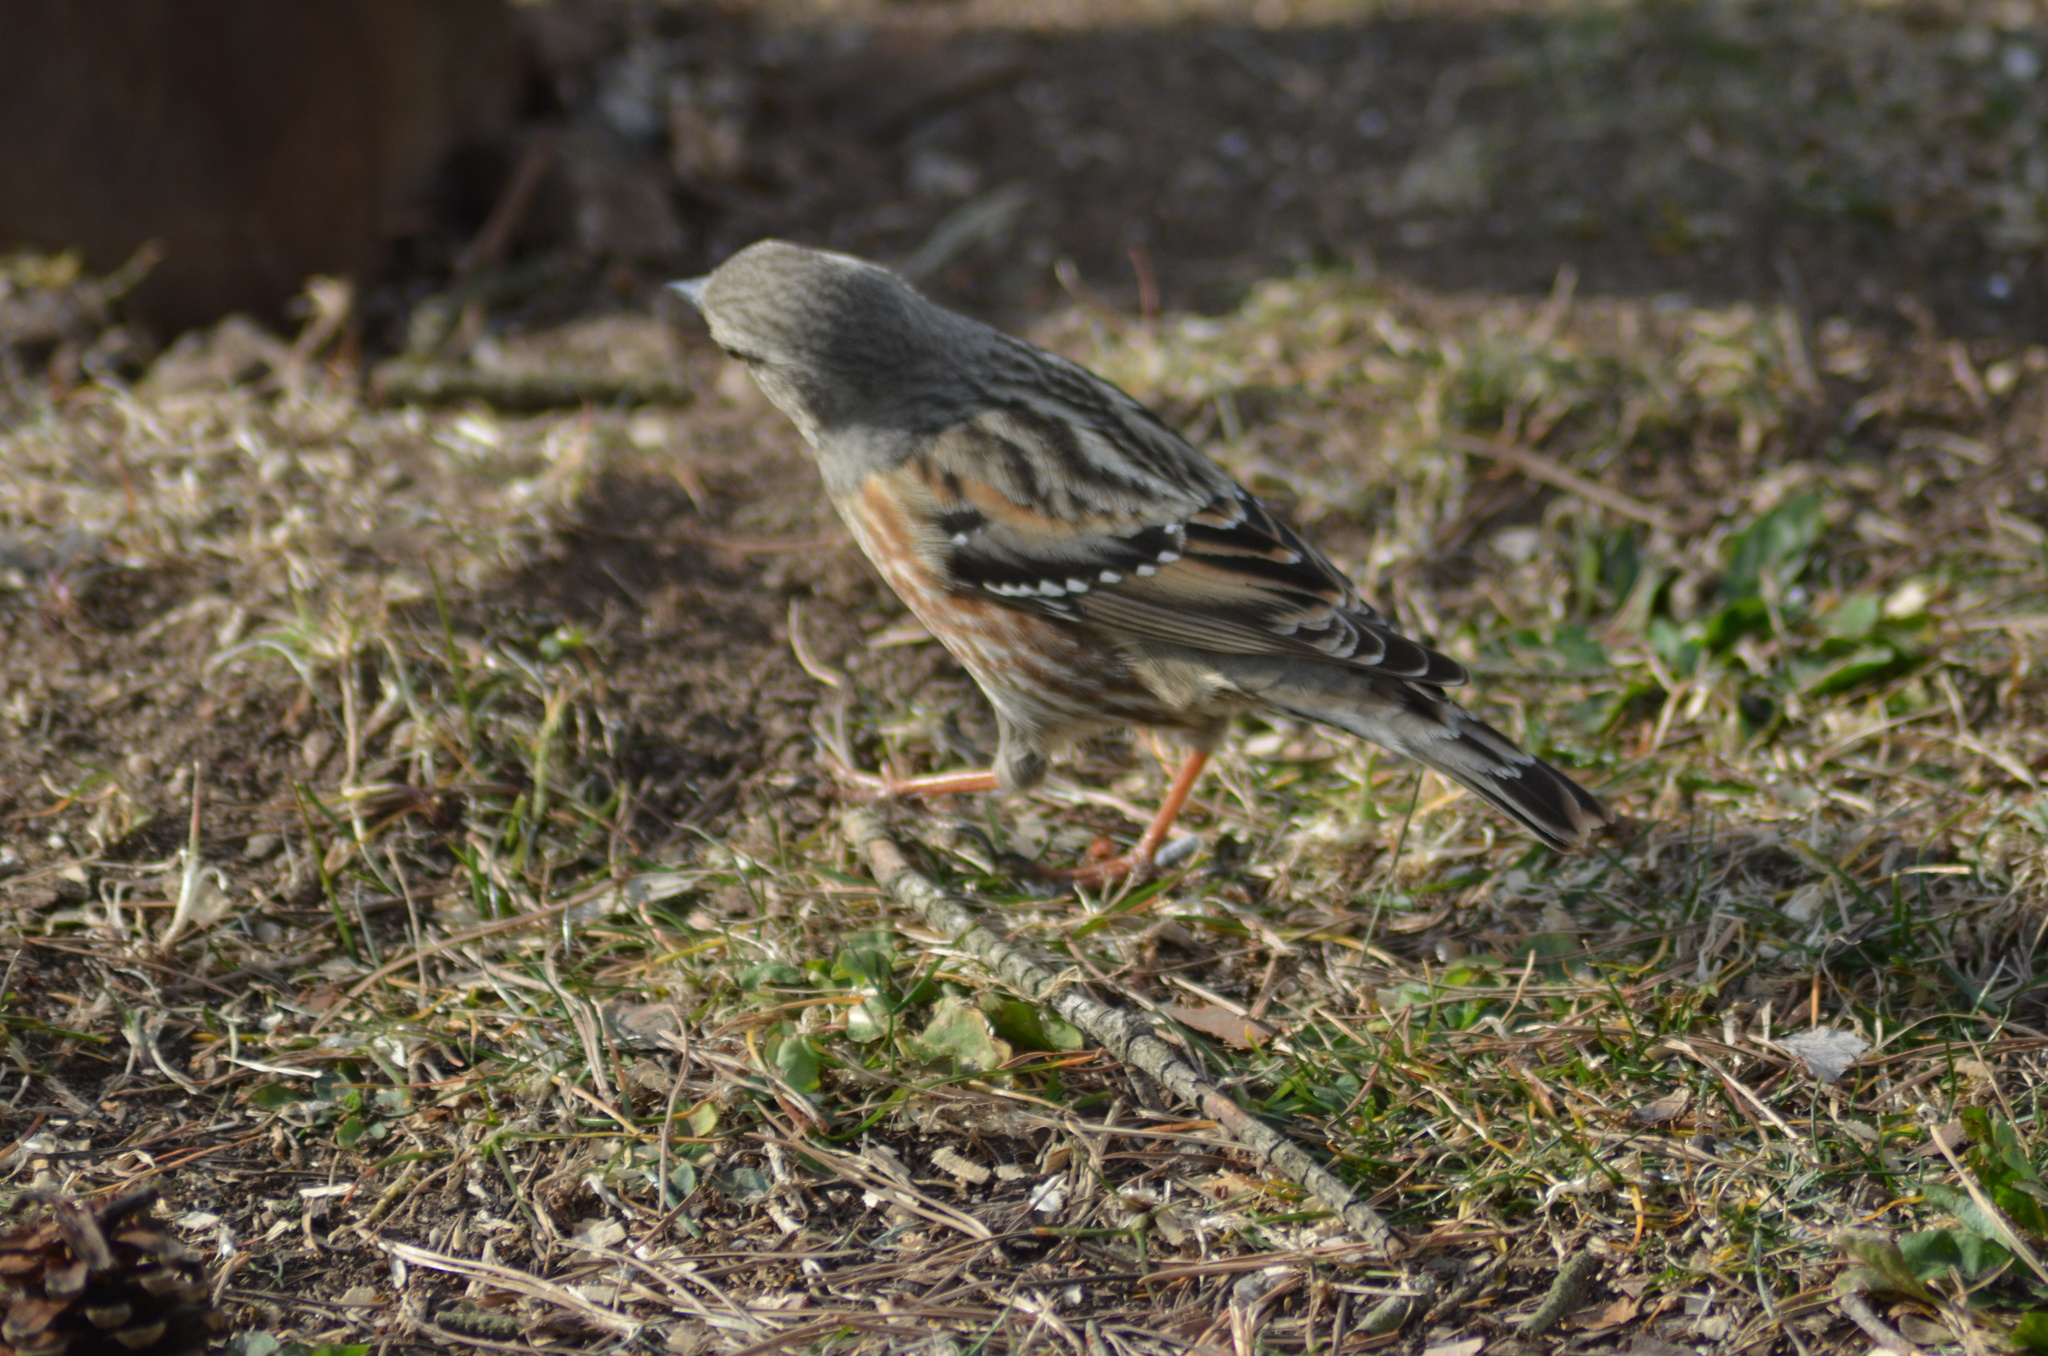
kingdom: Animalia
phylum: Chordata
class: Aves
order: Passeriformes
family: Prunellidae
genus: Prunella
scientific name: Prunella collaris
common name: Alpine accentor
